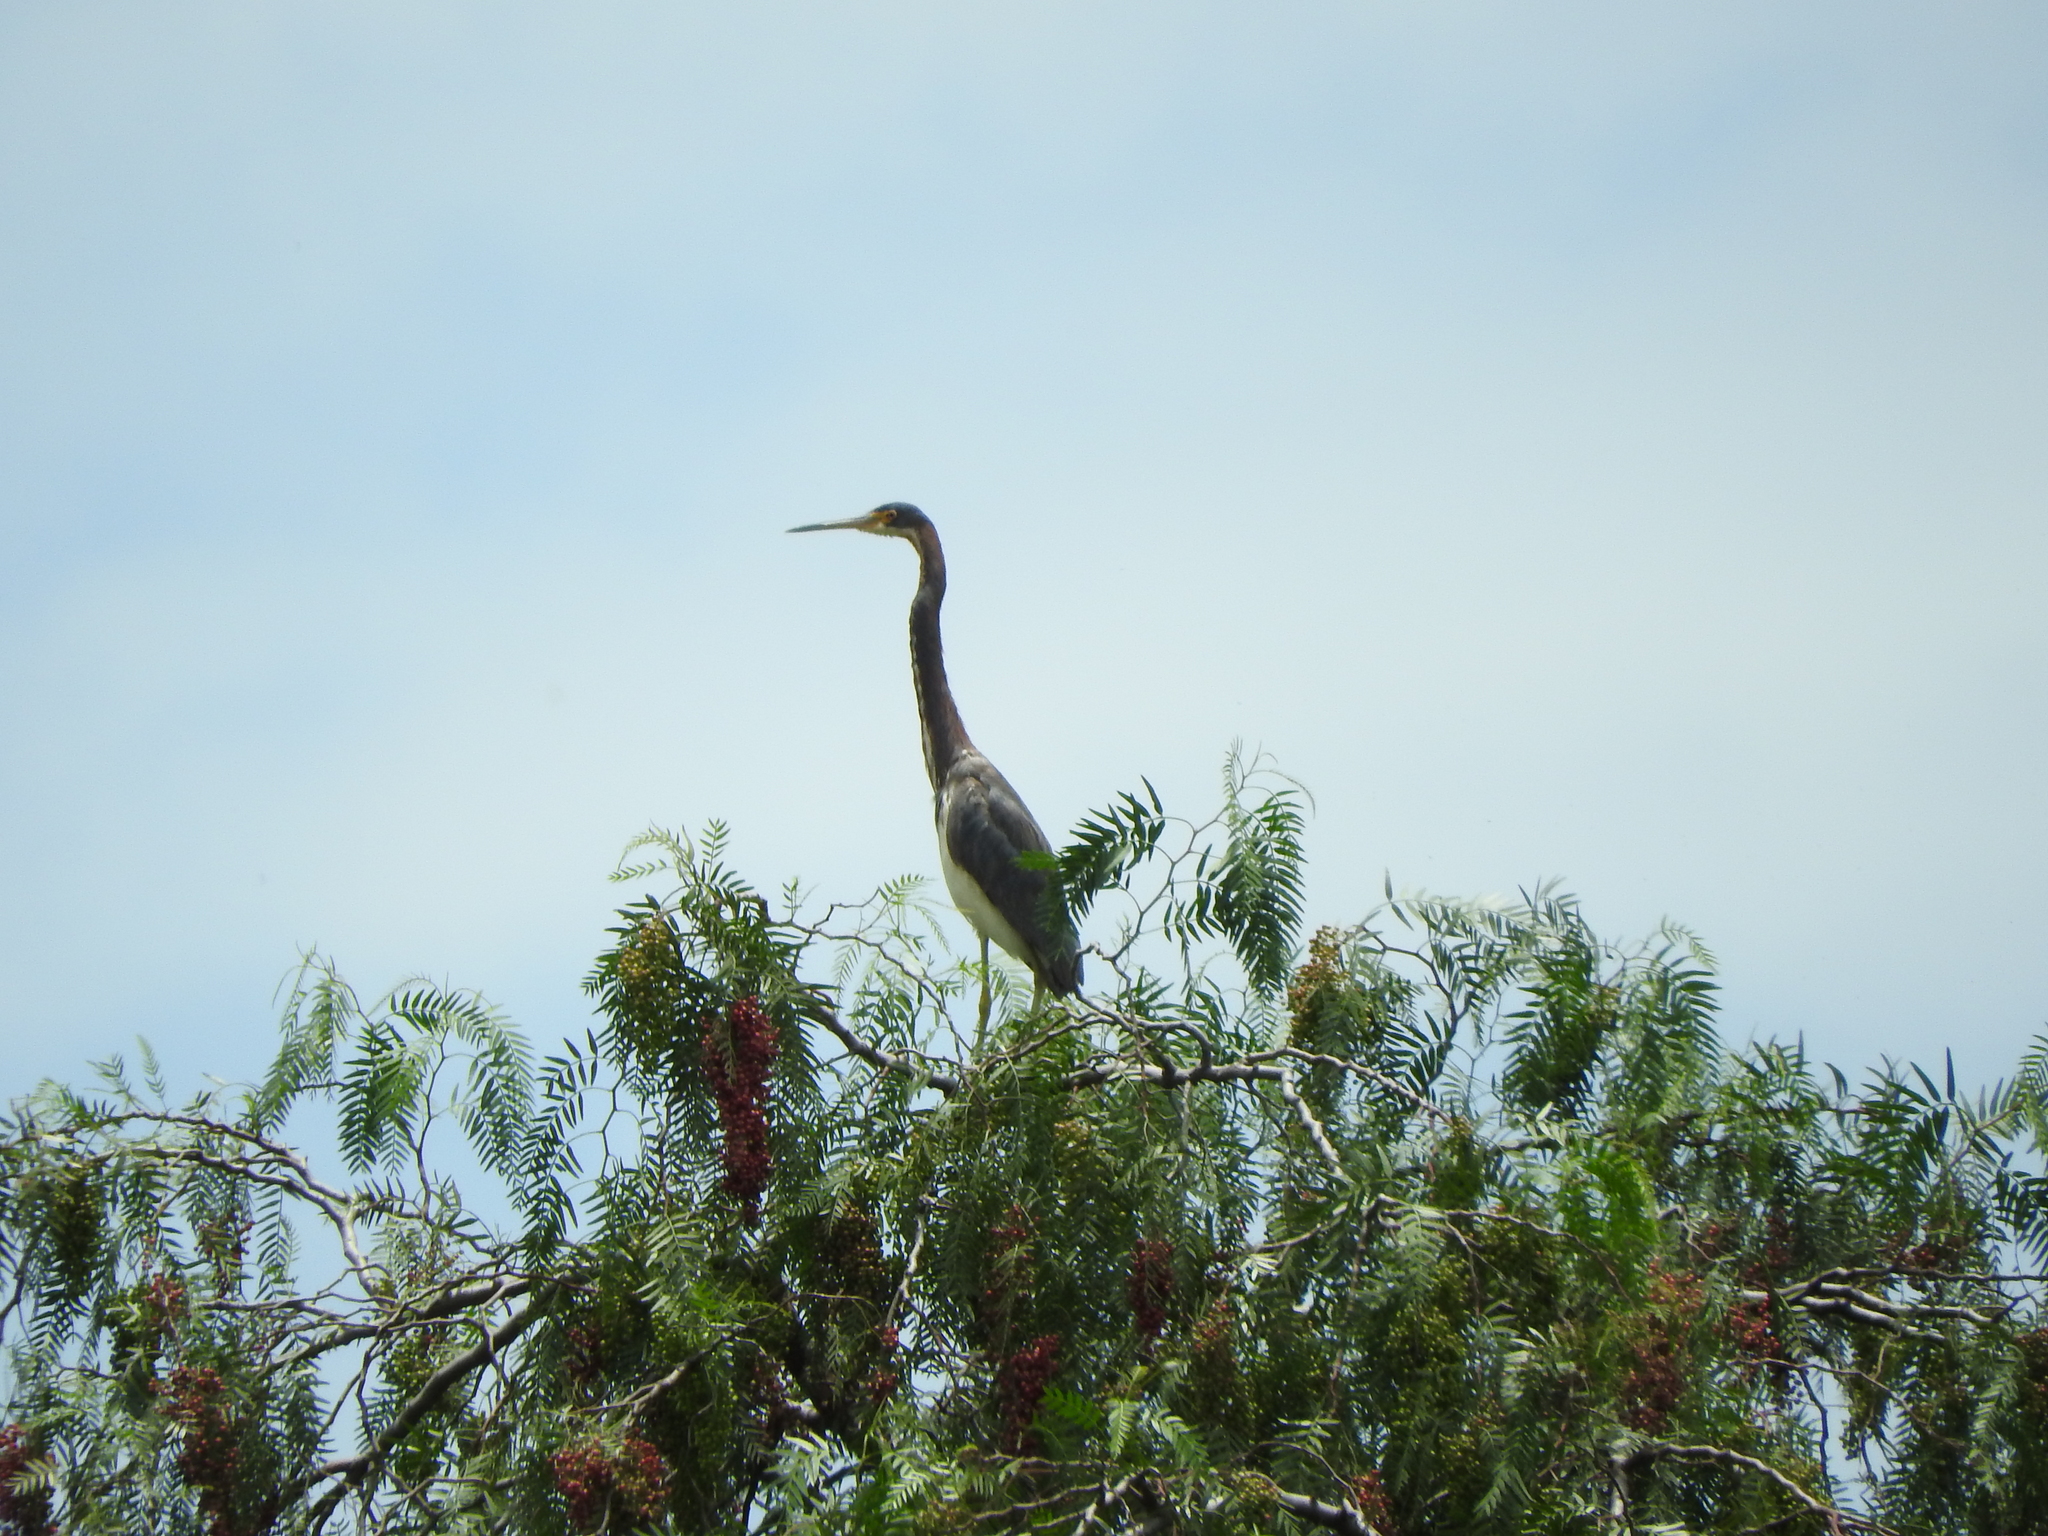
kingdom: Animalia
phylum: Chordata
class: Aves
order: Pelecaniformes
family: Ardeidae
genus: Egretta
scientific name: Egretta tricolor
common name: Tricolored heron
